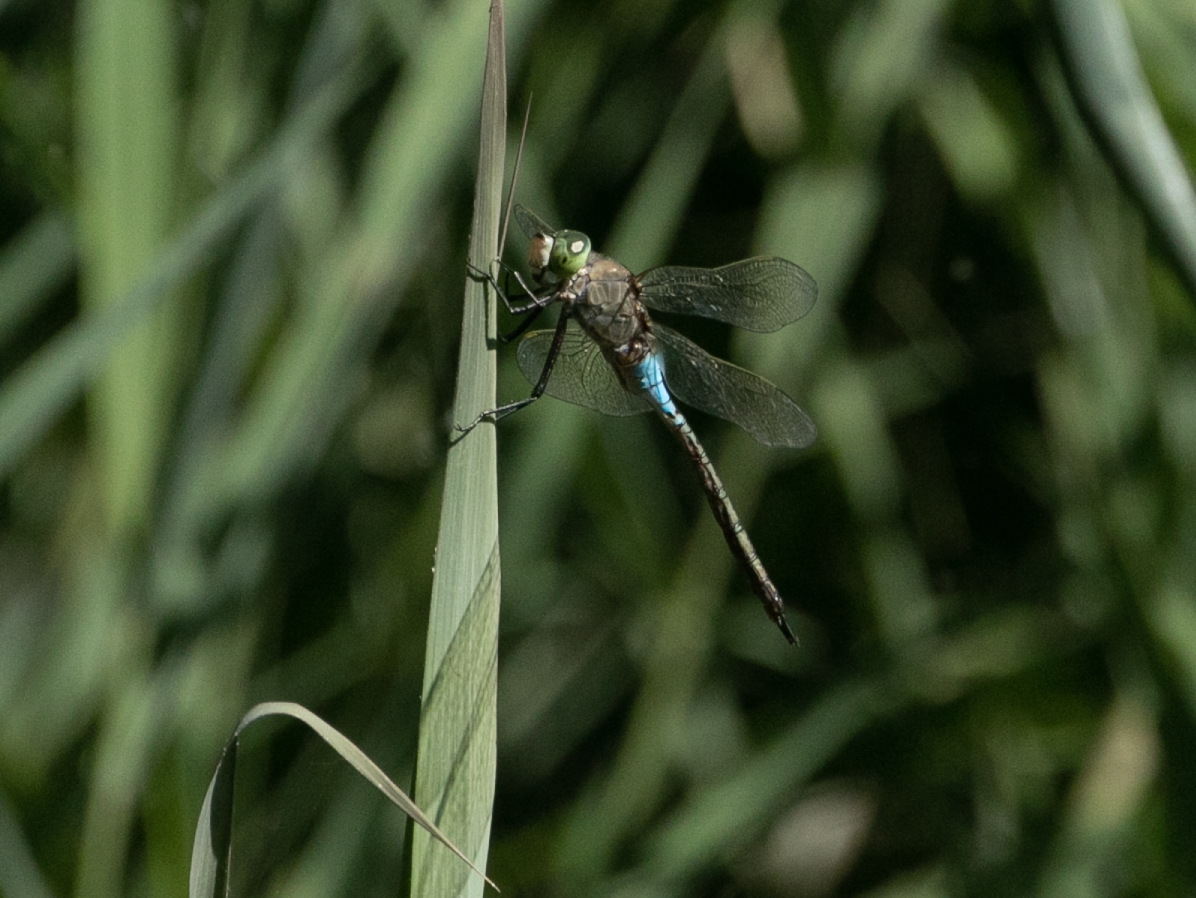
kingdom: Animalia
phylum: Arthropoda
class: Insecta
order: Odonata
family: Aeshnidae
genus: Anax
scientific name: Anax parthenope
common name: Lesser emperor
